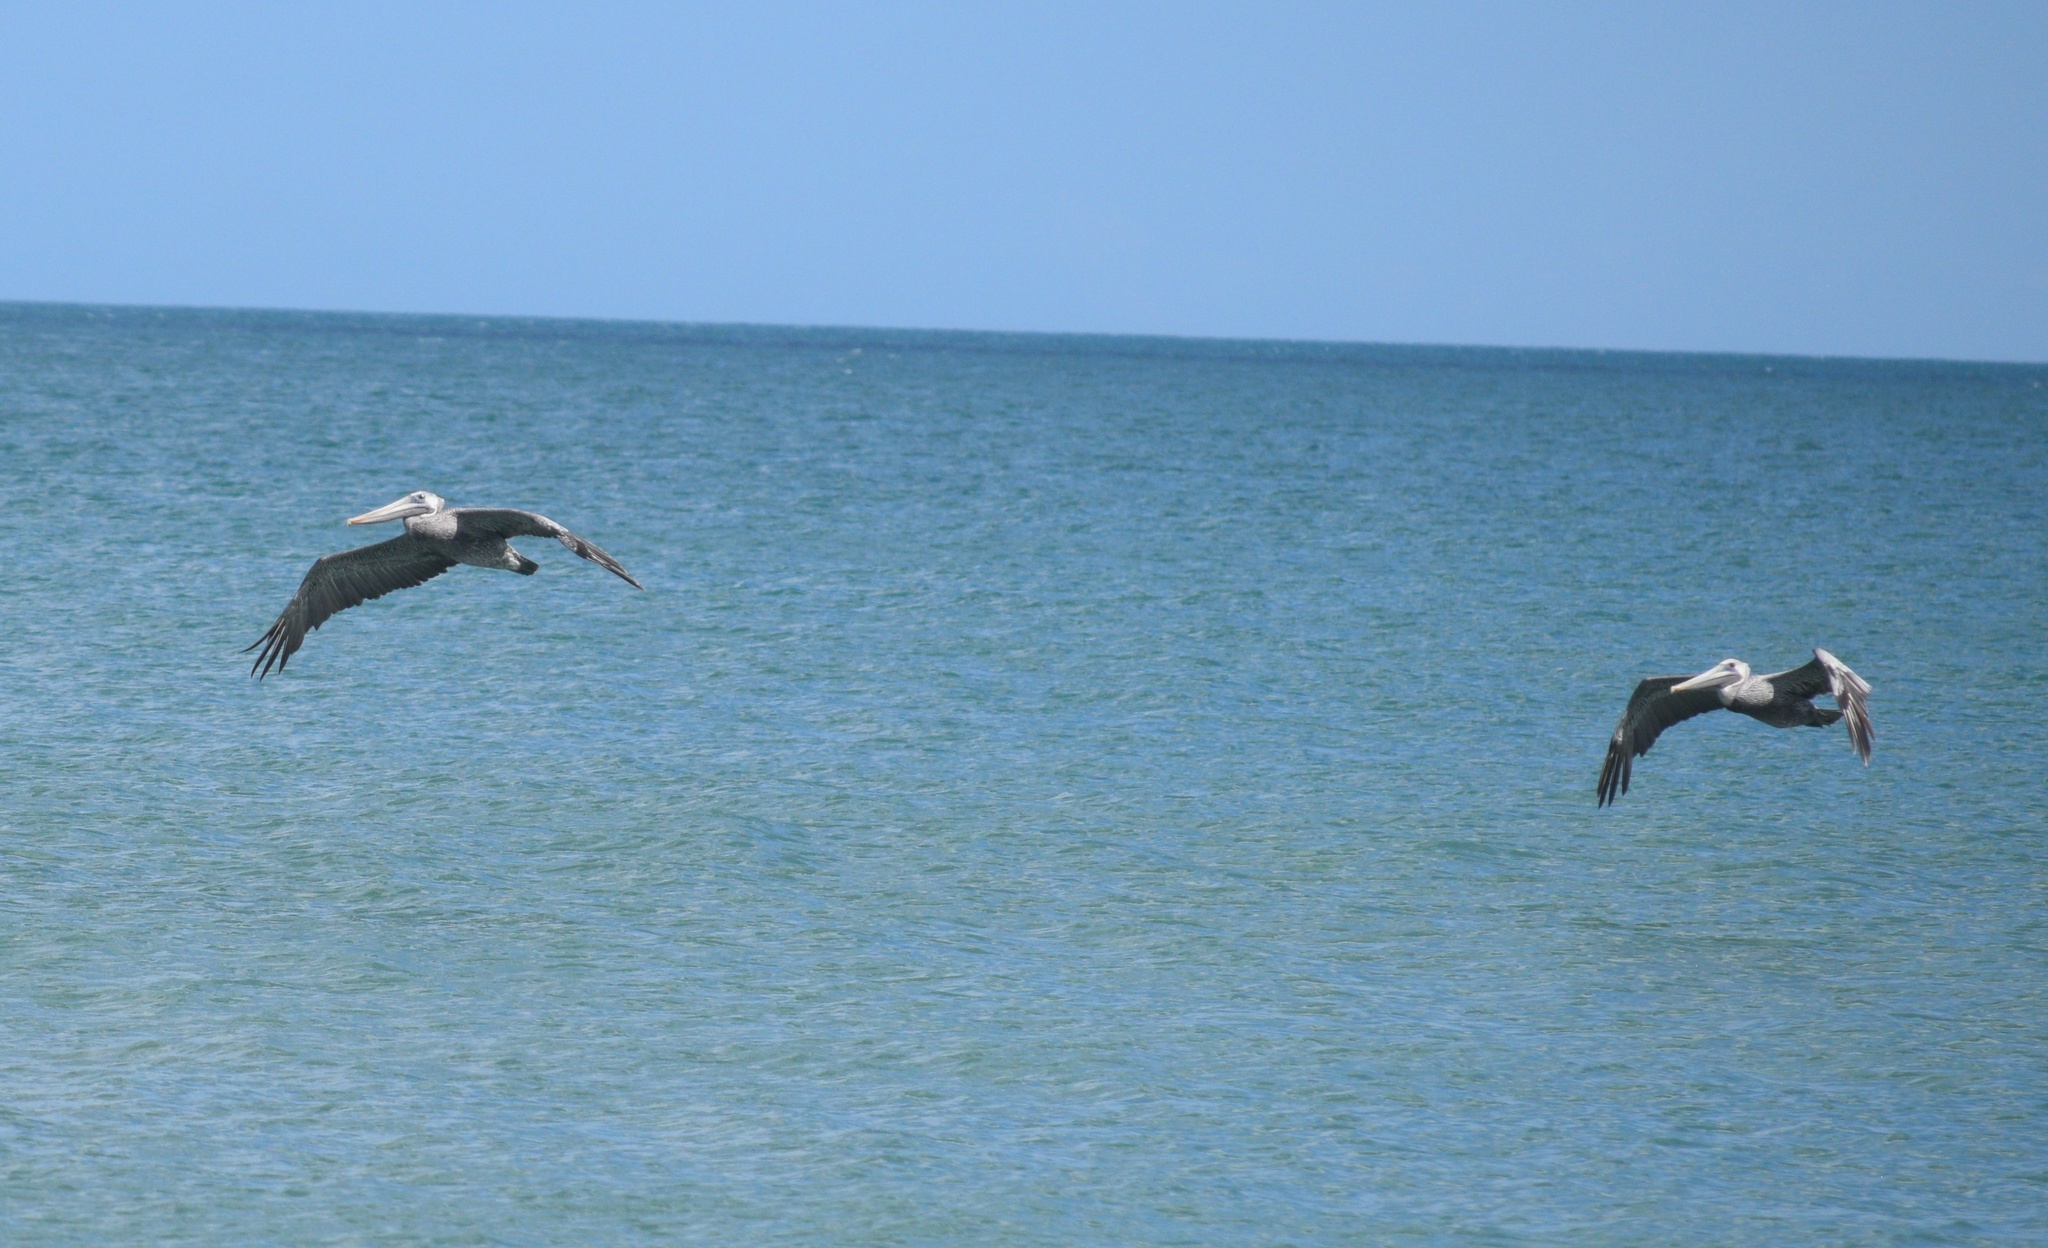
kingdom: Animalia
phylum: Chordata
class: Aves
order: Pelecaniformes
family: Pelecanidae
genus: Pelecanus
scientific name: Pelecanus occidentalis
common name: Brown pelican
